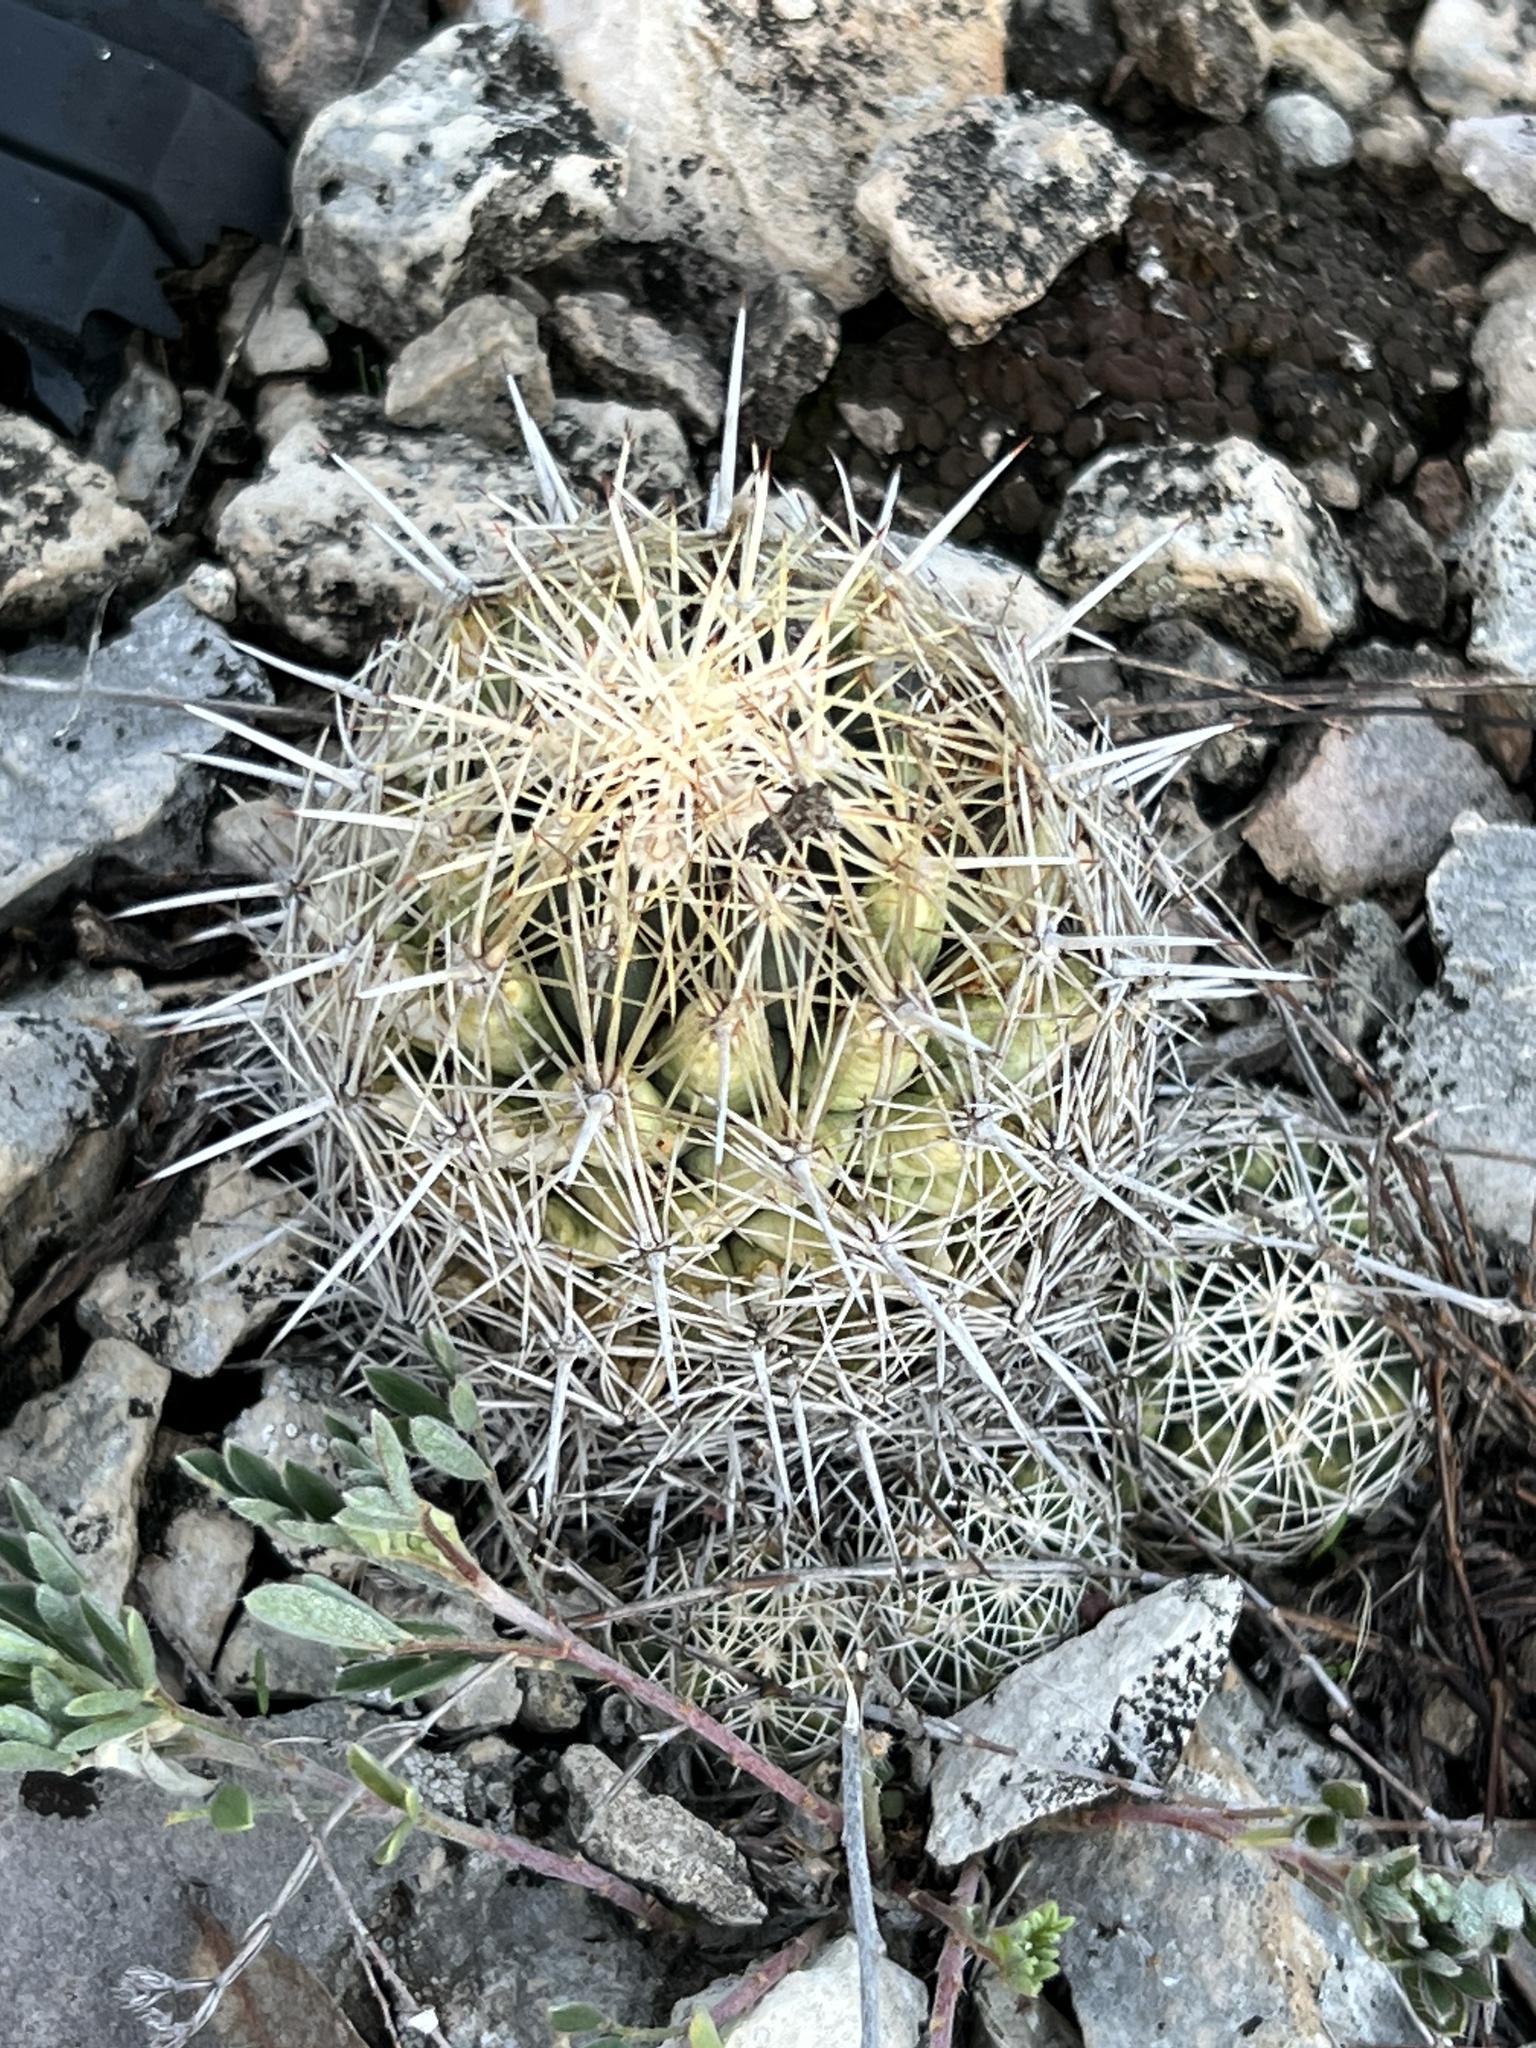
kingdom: Plantae
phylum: Tracheophyta
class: Magnoliopsida
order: Caryophyllales
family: Cactaceae
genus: Coryphantha
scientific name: Coryphantha echinus
